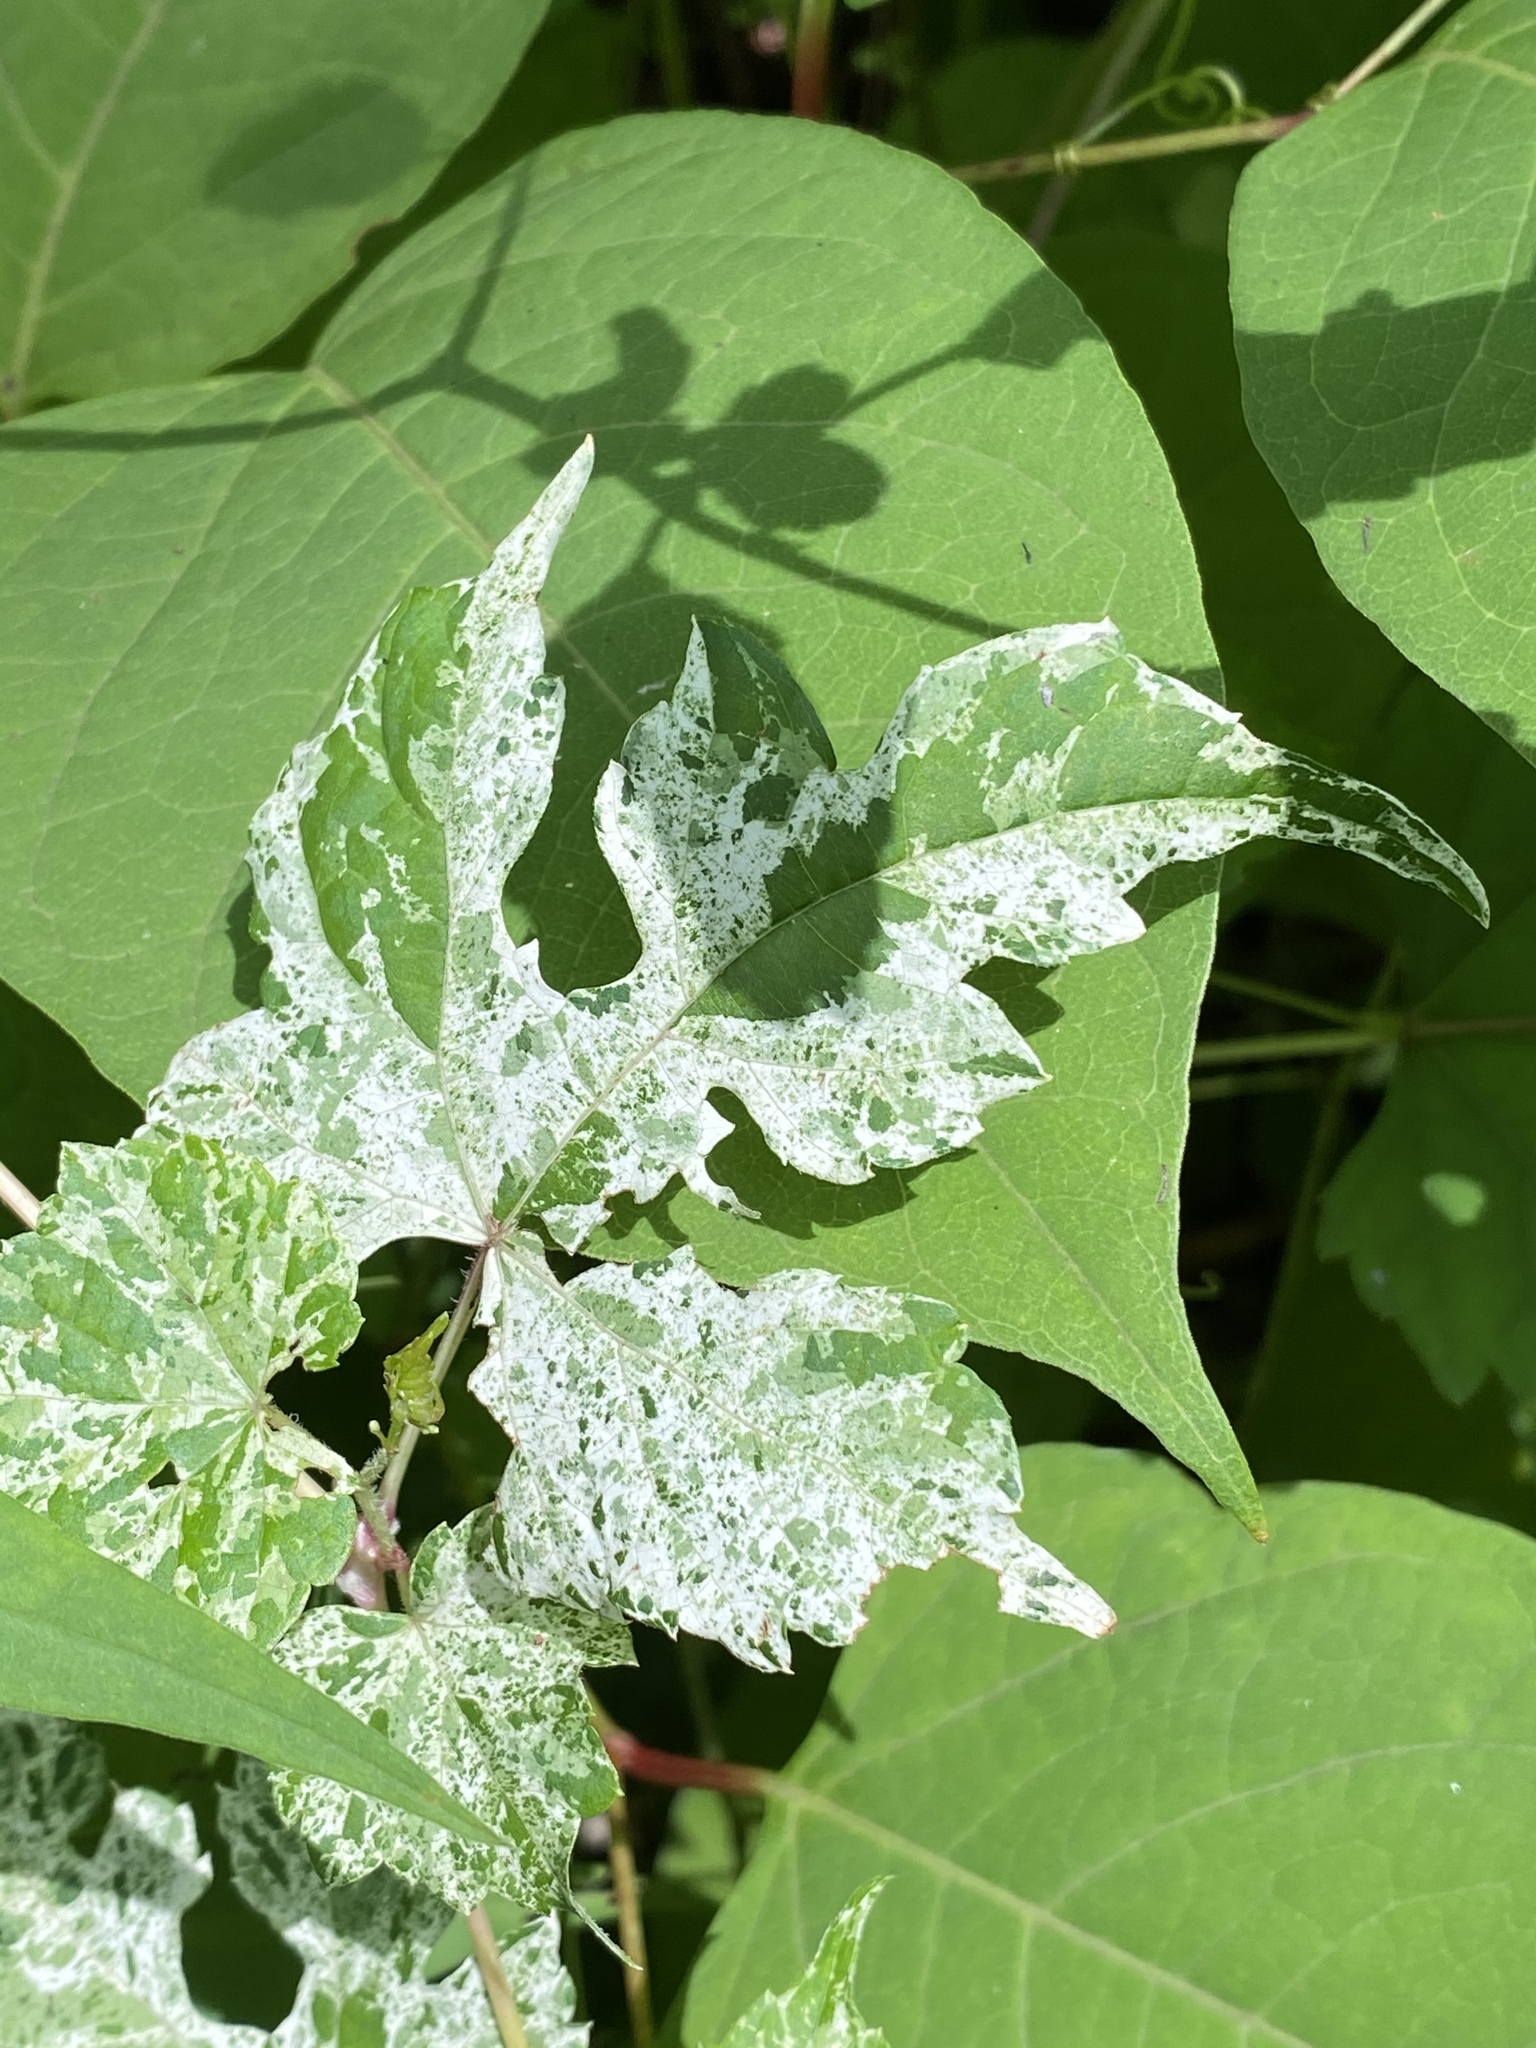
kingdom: Plantae
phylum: Tracheophyta
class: Magnoliopsida
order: Vitales
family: Vitaceae
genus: Ampelopsis
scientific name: Ampelopsis glandulosa
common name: Amur peppervine
